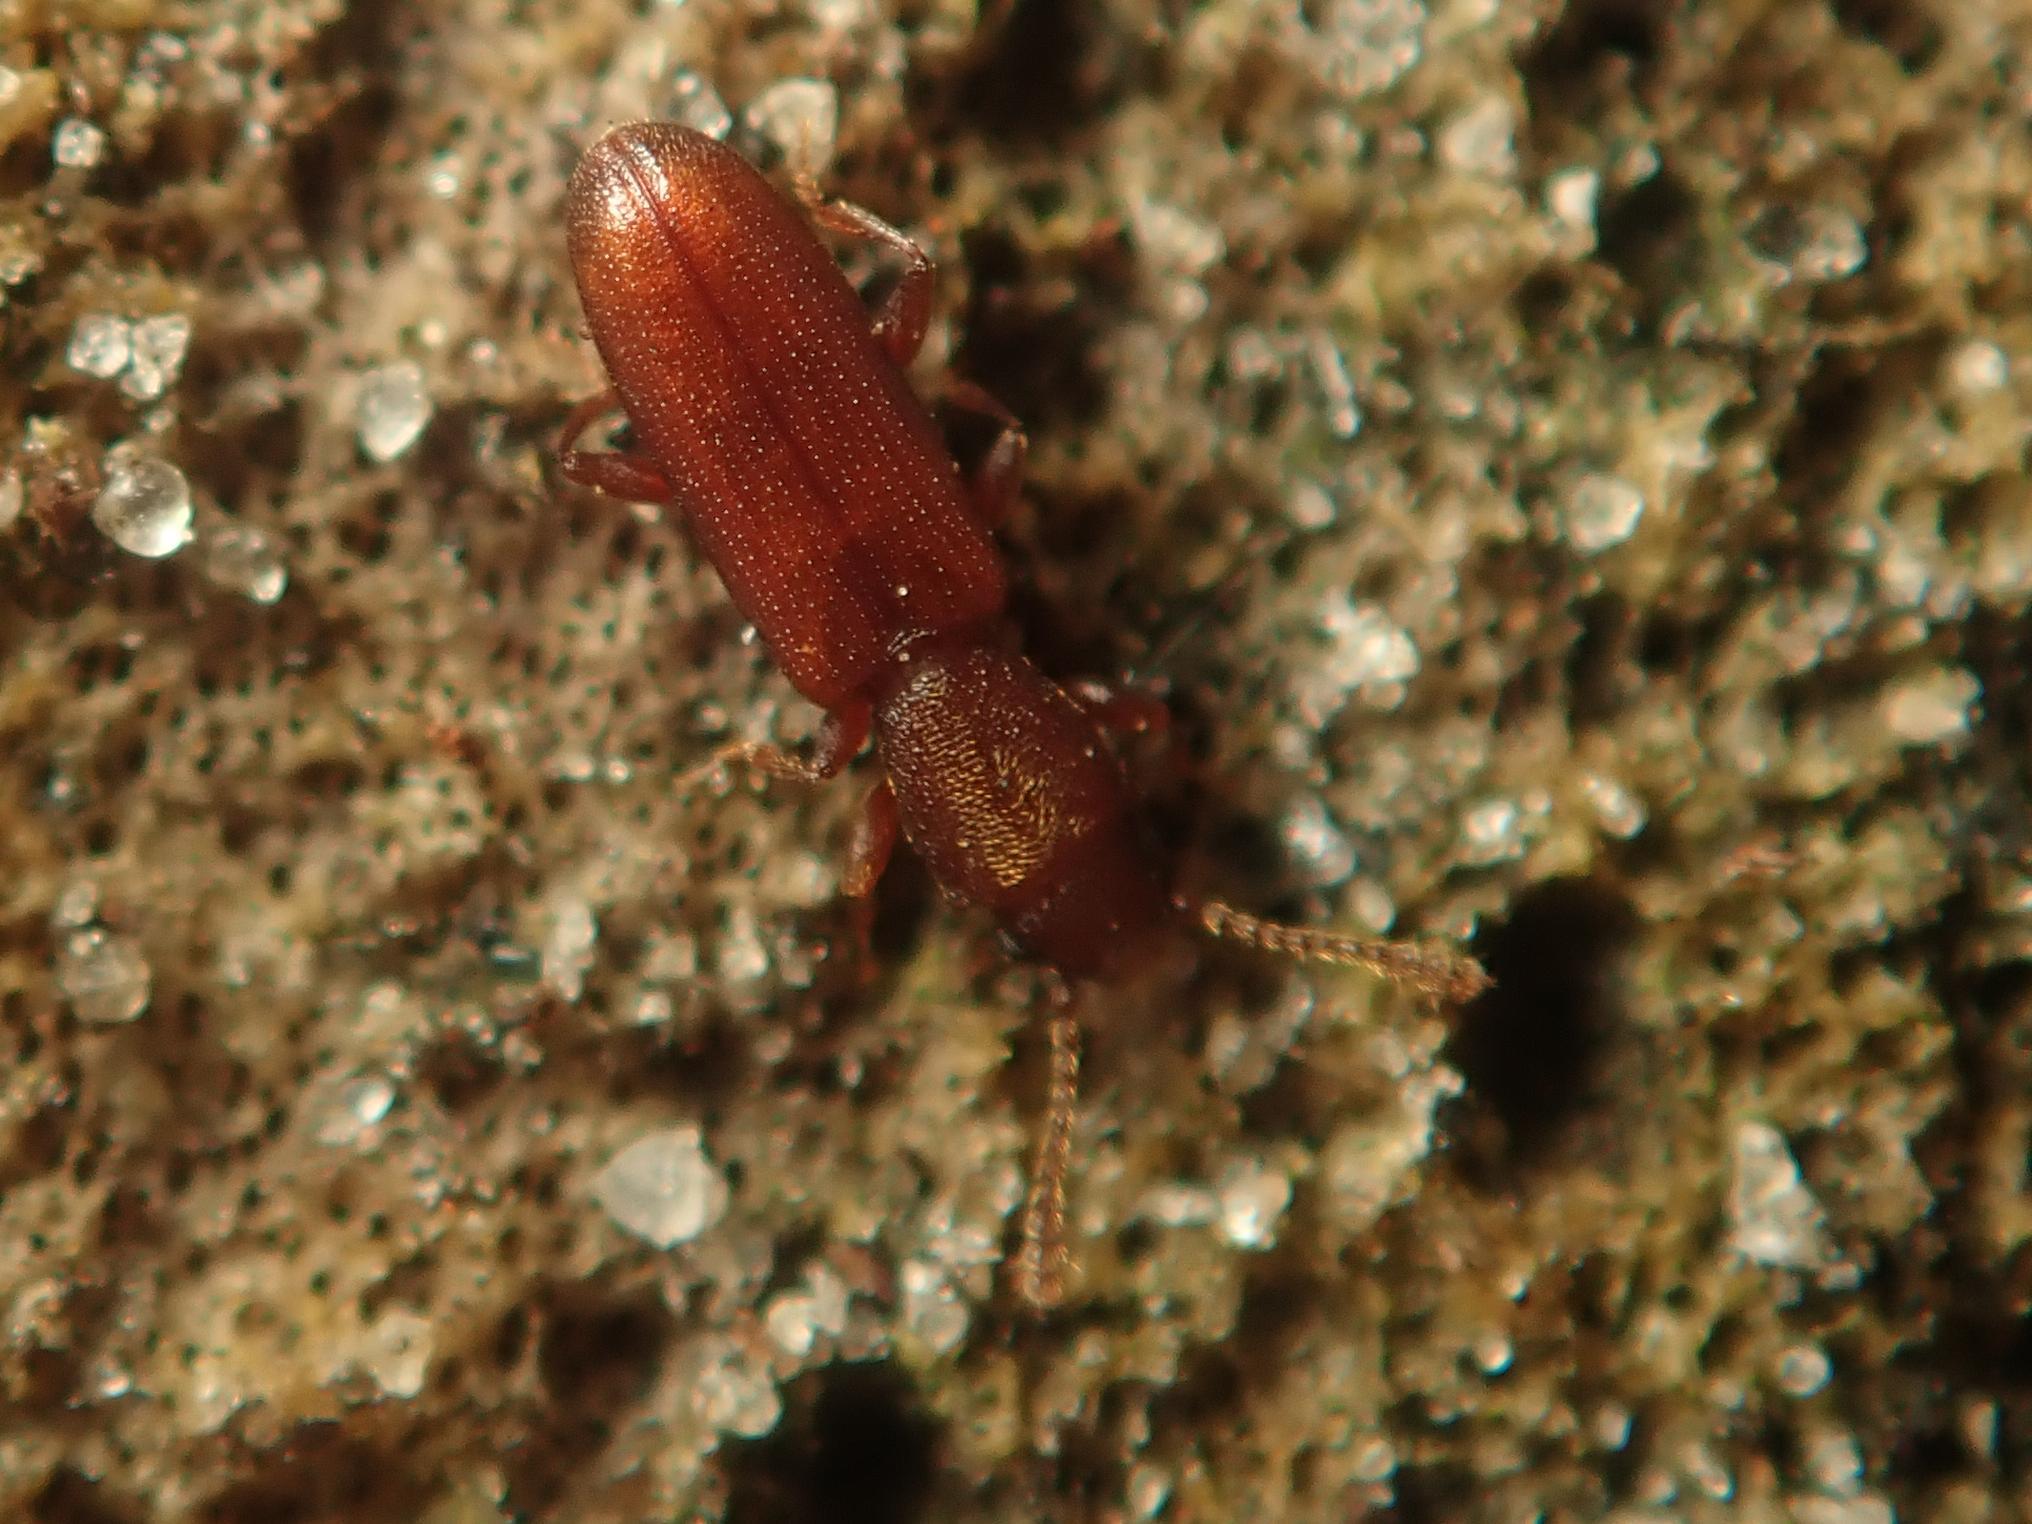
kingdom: Animalia
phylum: Arthropoda
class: Insecta
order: Coleoptera
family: Silvanidae
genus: Silvanus
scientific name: Silvanus unidentatus
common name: One-toothed silvan flat bark beetle
